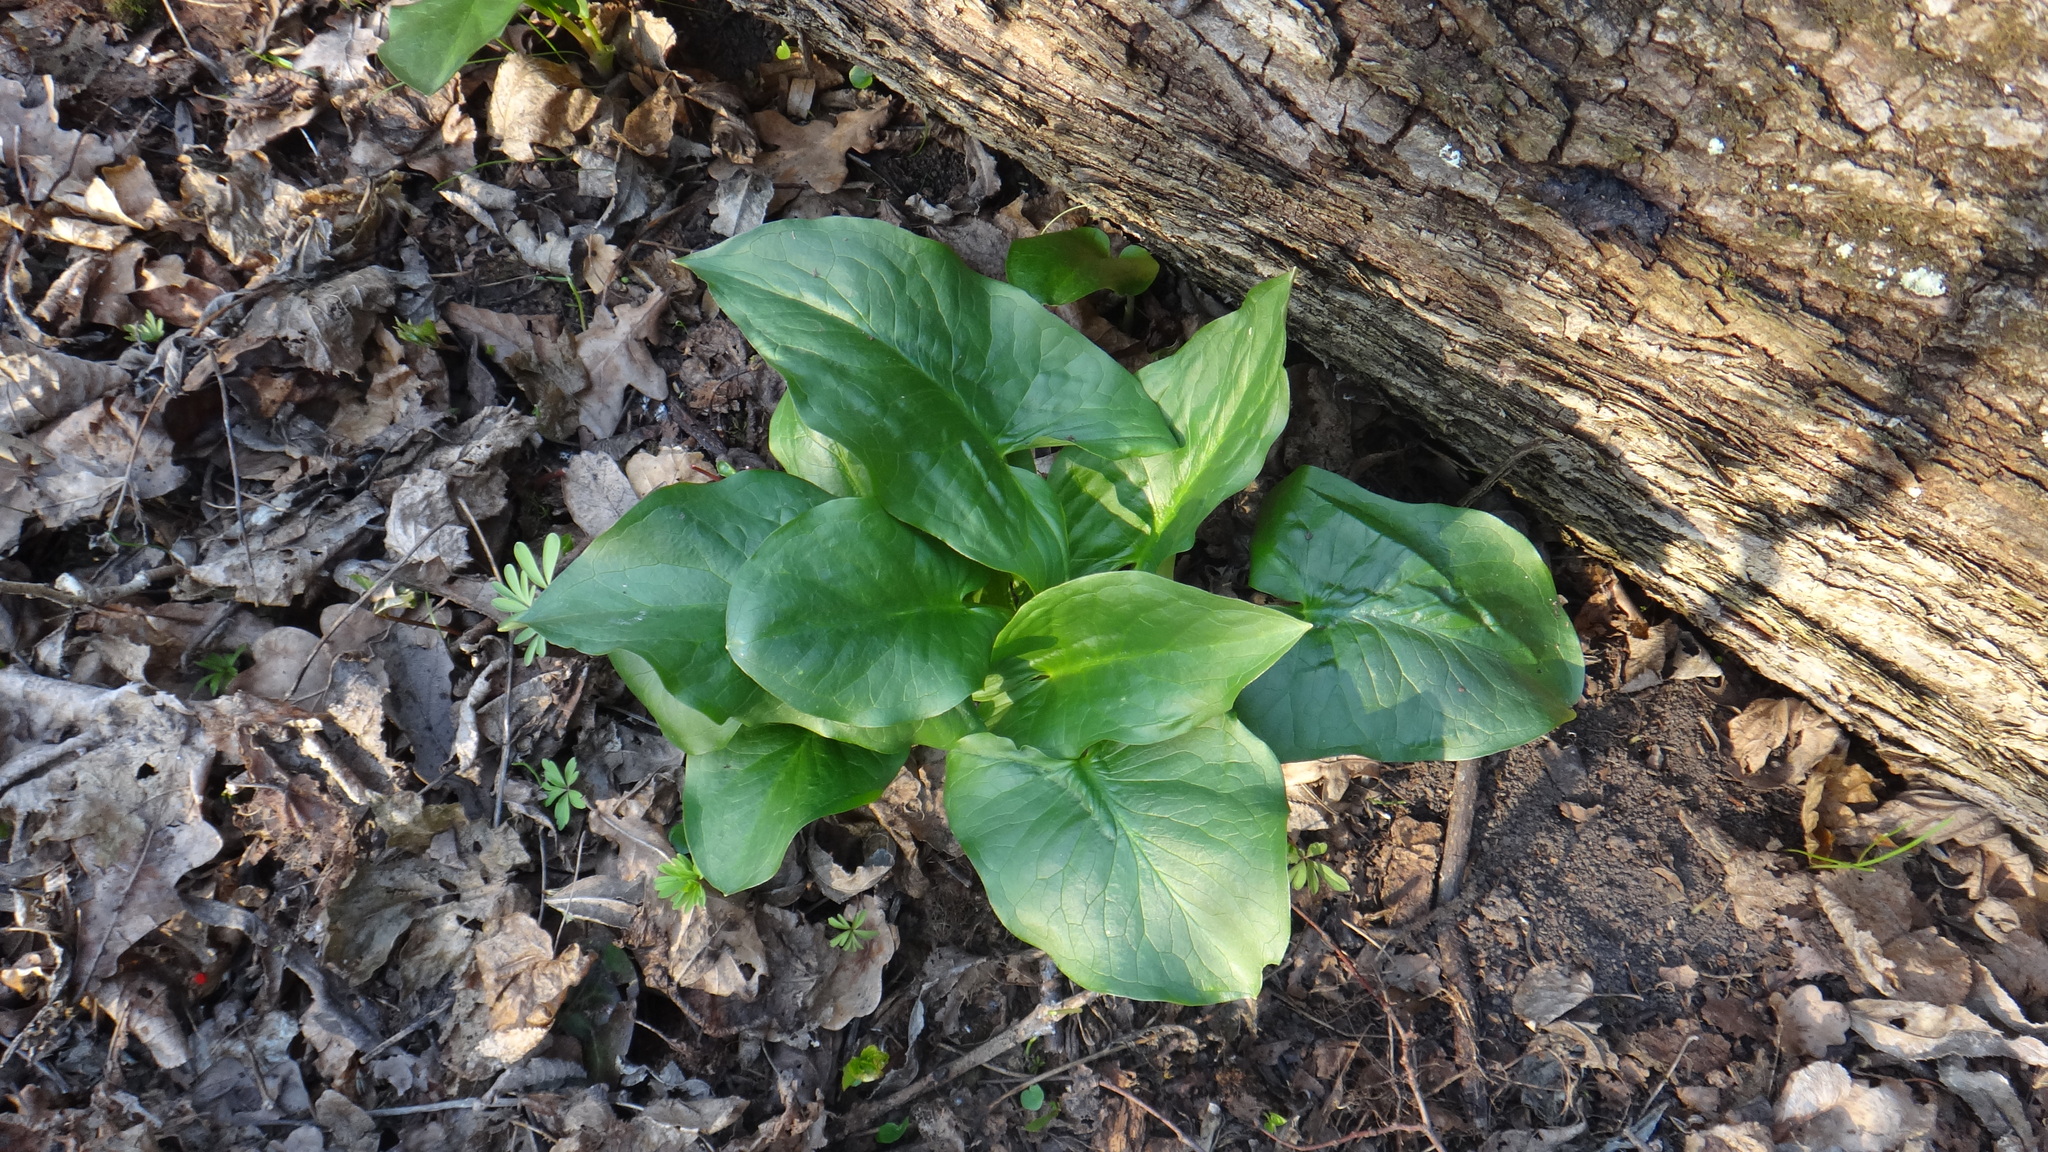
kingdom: Plantae
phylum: Tracheophyta
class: Liliopsida
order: Alismatales
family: Araceae
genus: Arum
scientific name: Arum besserianum
